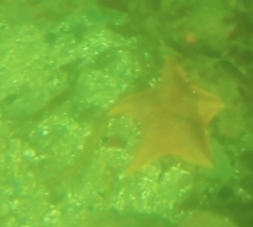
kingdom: Animalia
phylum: Echinodermata
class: Asteroidea
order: Valvatida
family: Asterinidae
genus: Patiria
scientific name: Patiria miniata
